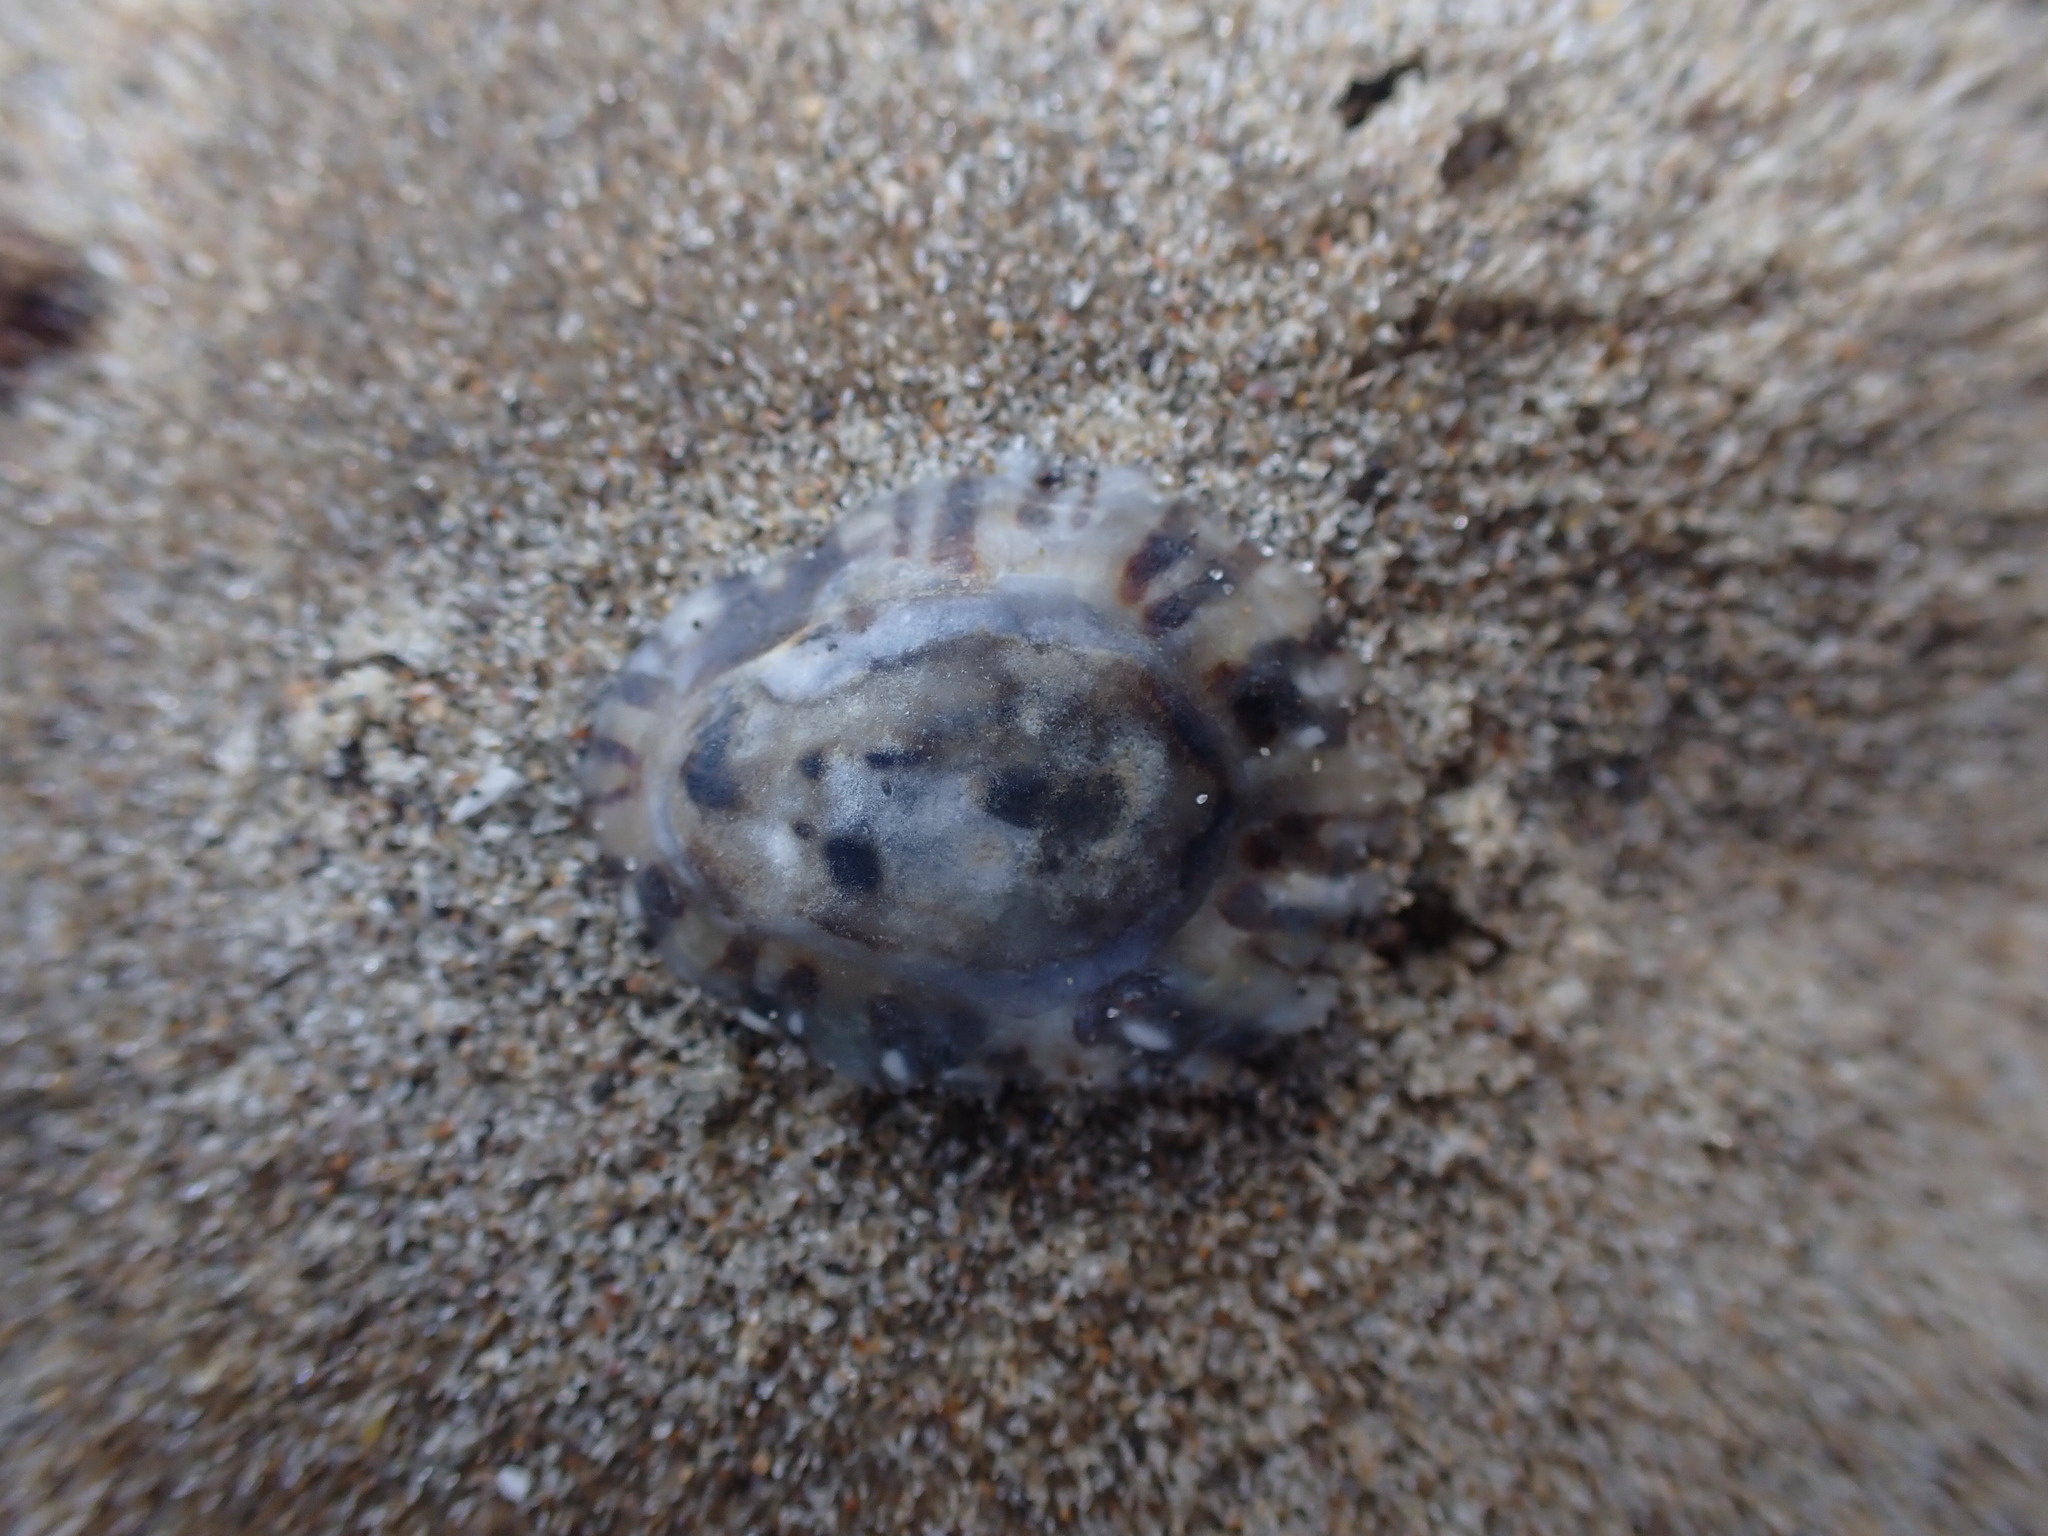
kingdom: Animalia
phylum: Mollusca
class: Gastropoda
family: Nacellidae
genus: Cellana
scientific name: Cellana ornata
